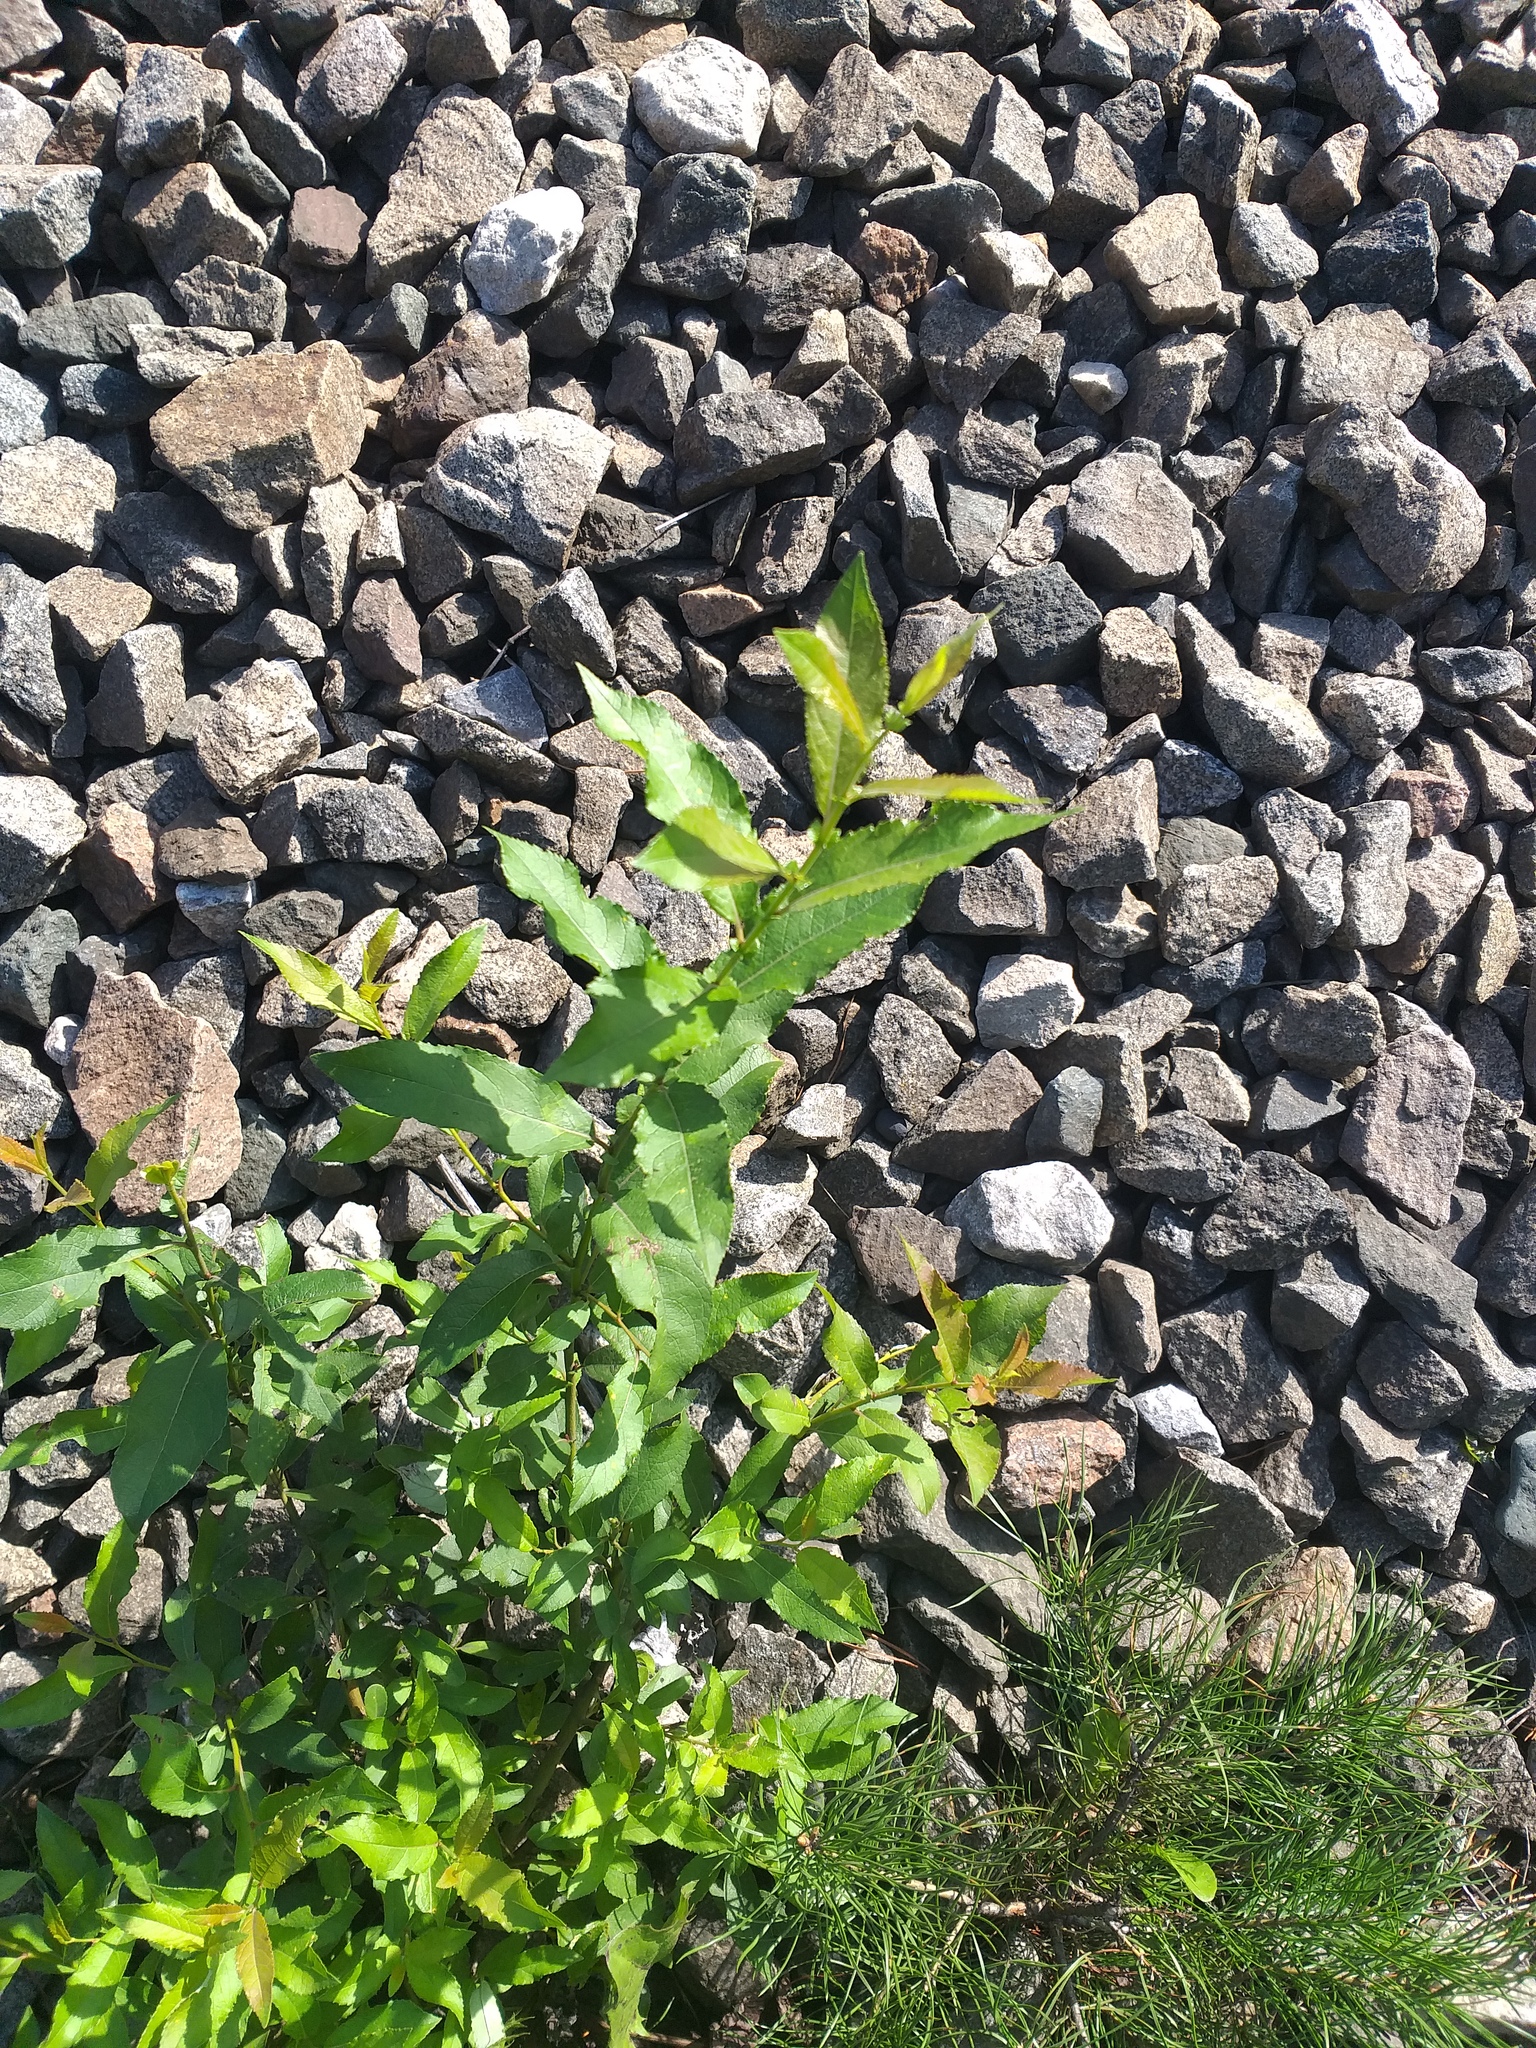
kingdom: Plantae
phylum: Tracheophyta
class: Magnoliopsida
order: Malpighiales
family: Salicaceae
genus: Salix
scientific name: Salix myrsinifolia
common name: Dark-leaved willow
